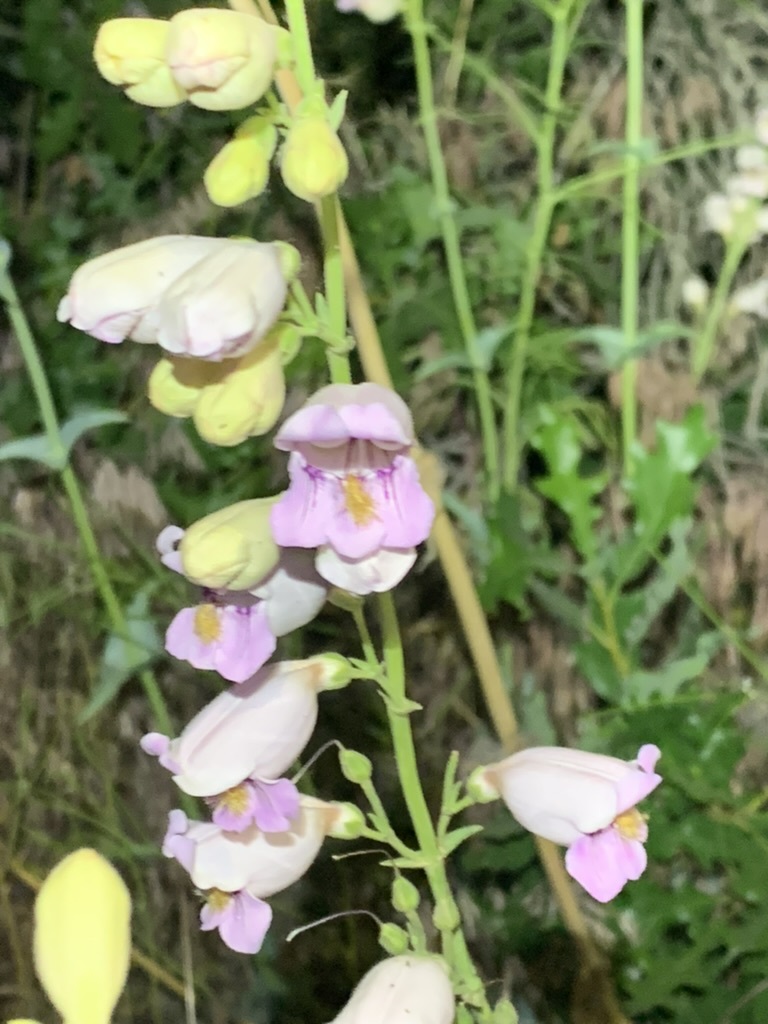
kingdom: Plantae
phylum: Tracheophyta
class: Magnoliopsida
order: Lamiales
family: Plantaginaceae
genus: Penstemon
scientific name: Penstemon palmeri
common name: Palmer penstemon
